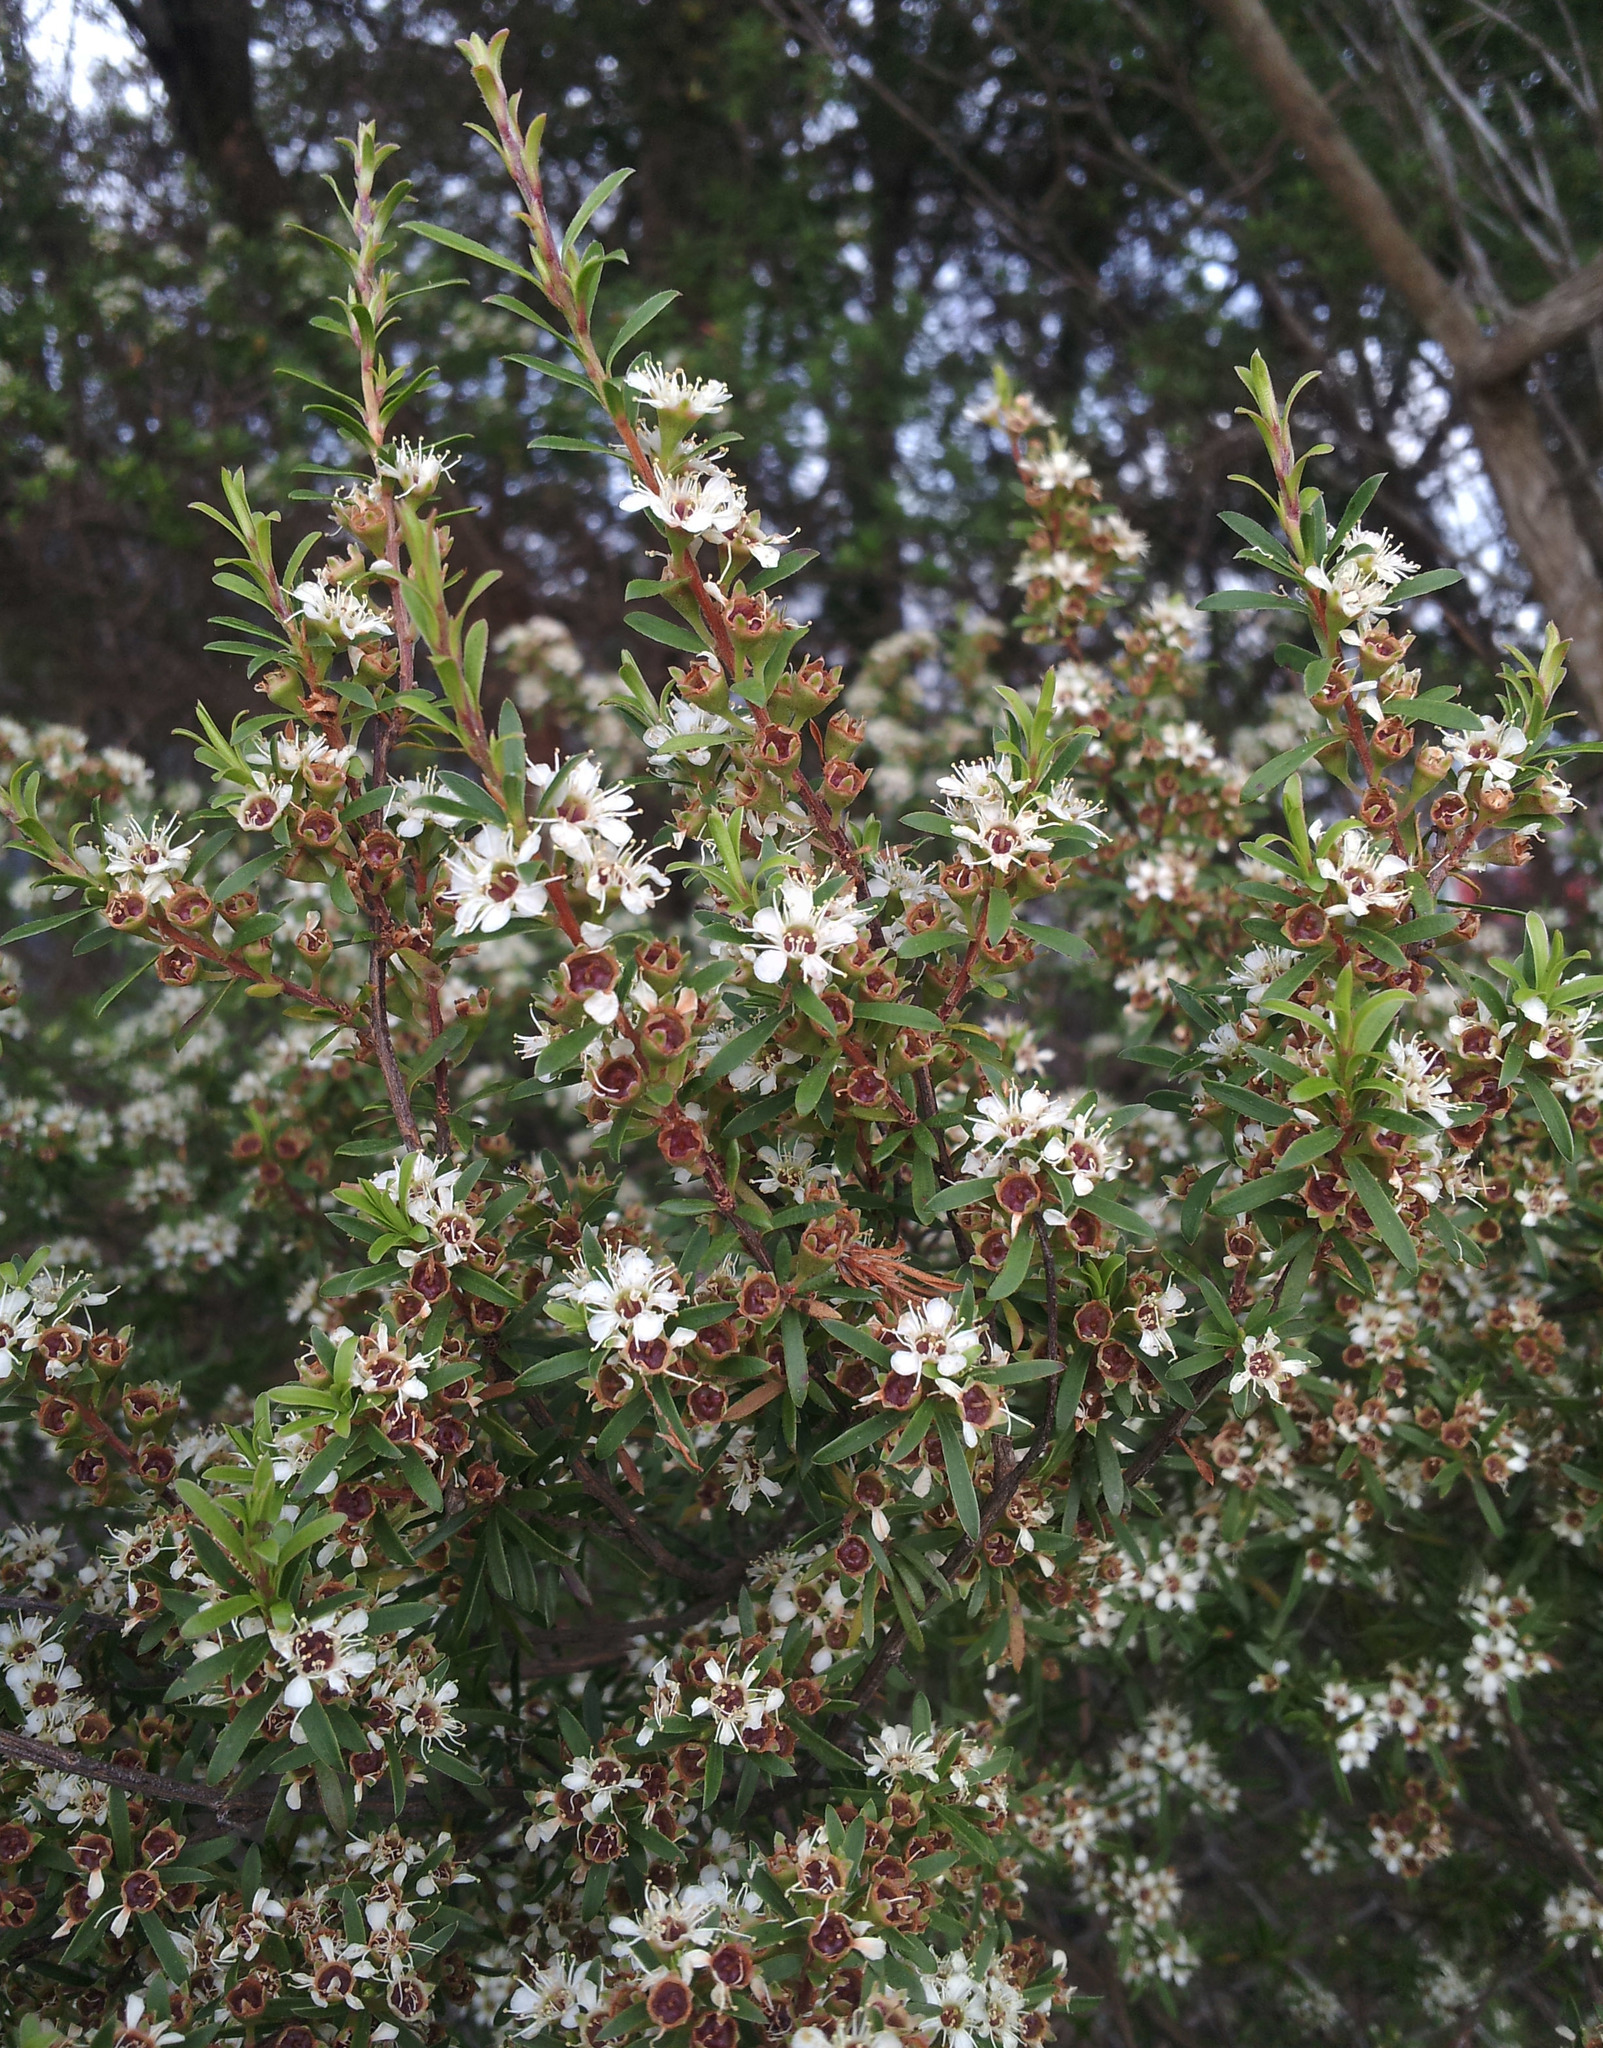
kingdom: Plantae
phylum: Tracheophyta
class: Magnoliopsida
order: Myrtales
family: Myrtaceae
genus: Kunzea
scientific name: Kunzea robusta
